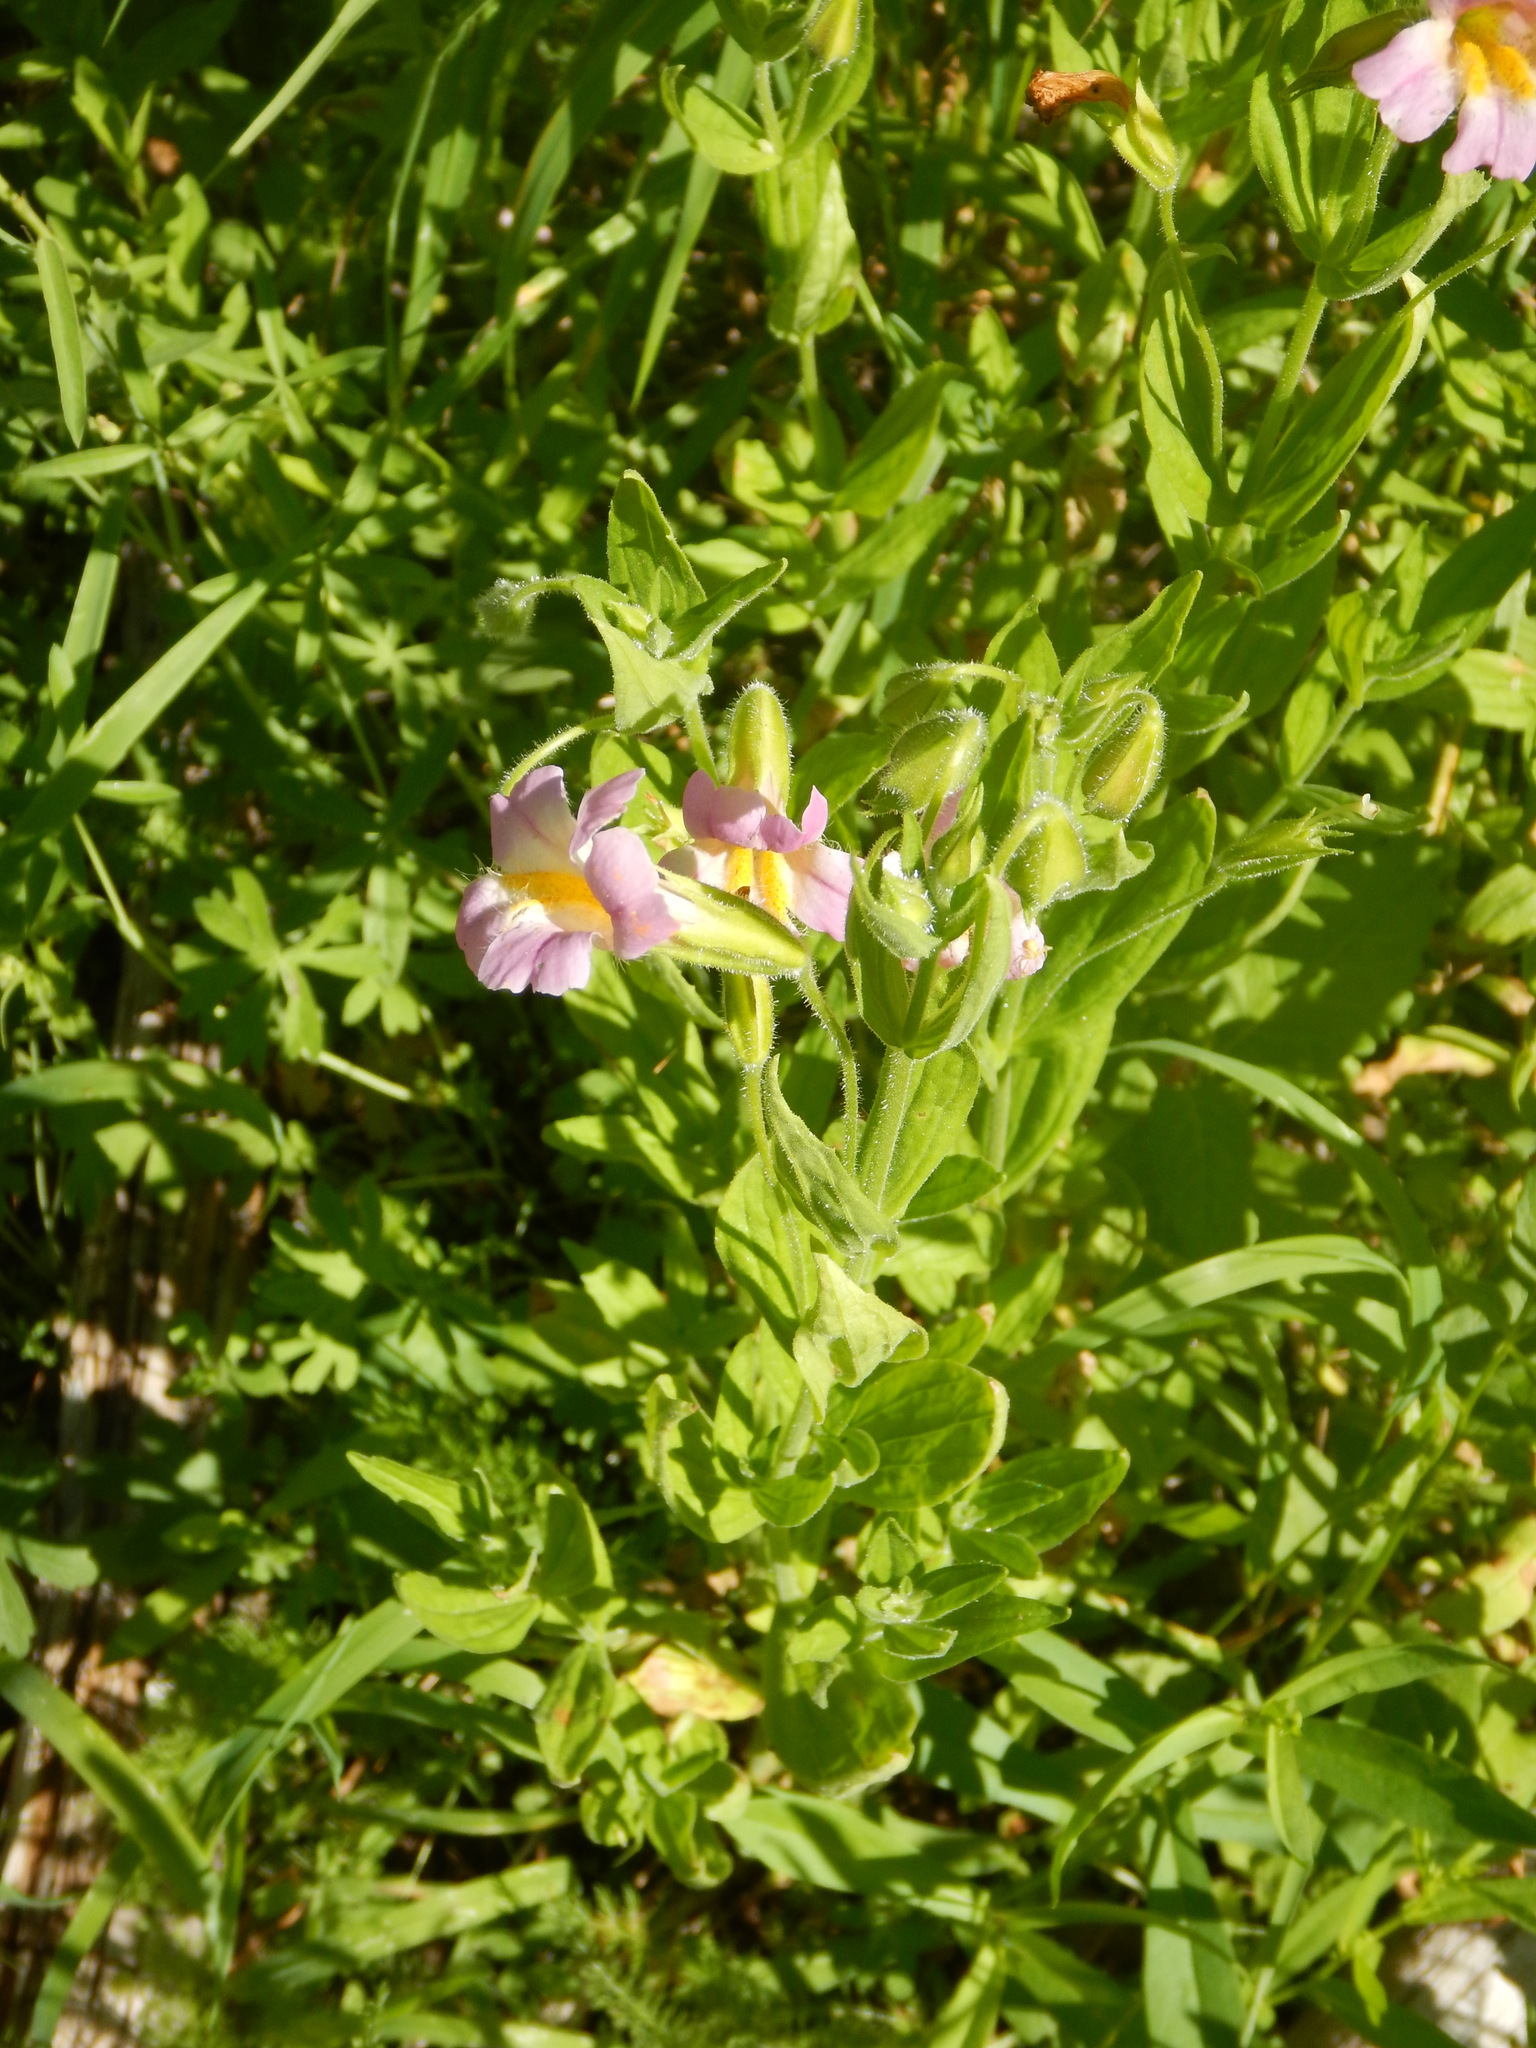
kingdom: Plantae
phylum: Tracheophyta
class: Magnoliopsida
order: Lamiales
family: Phrymaceae
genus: Erythranthe
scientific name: Erythranthe erubescens
